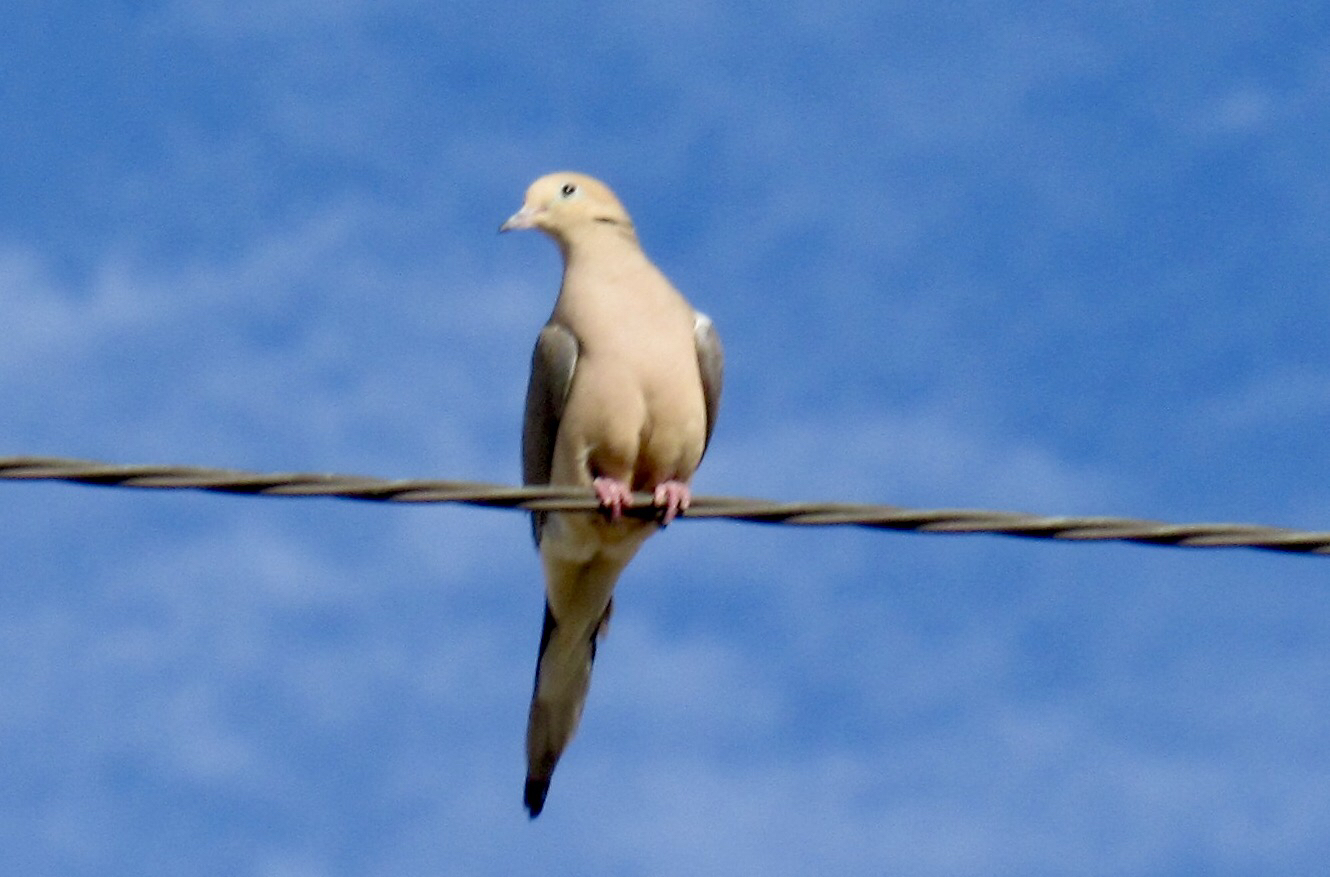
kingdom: Animalia
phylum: Chordata
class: Aves
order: Columbiformes
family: Columbidae
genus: Zenaida
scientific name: Zenaida macroura
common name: Mourning dove
